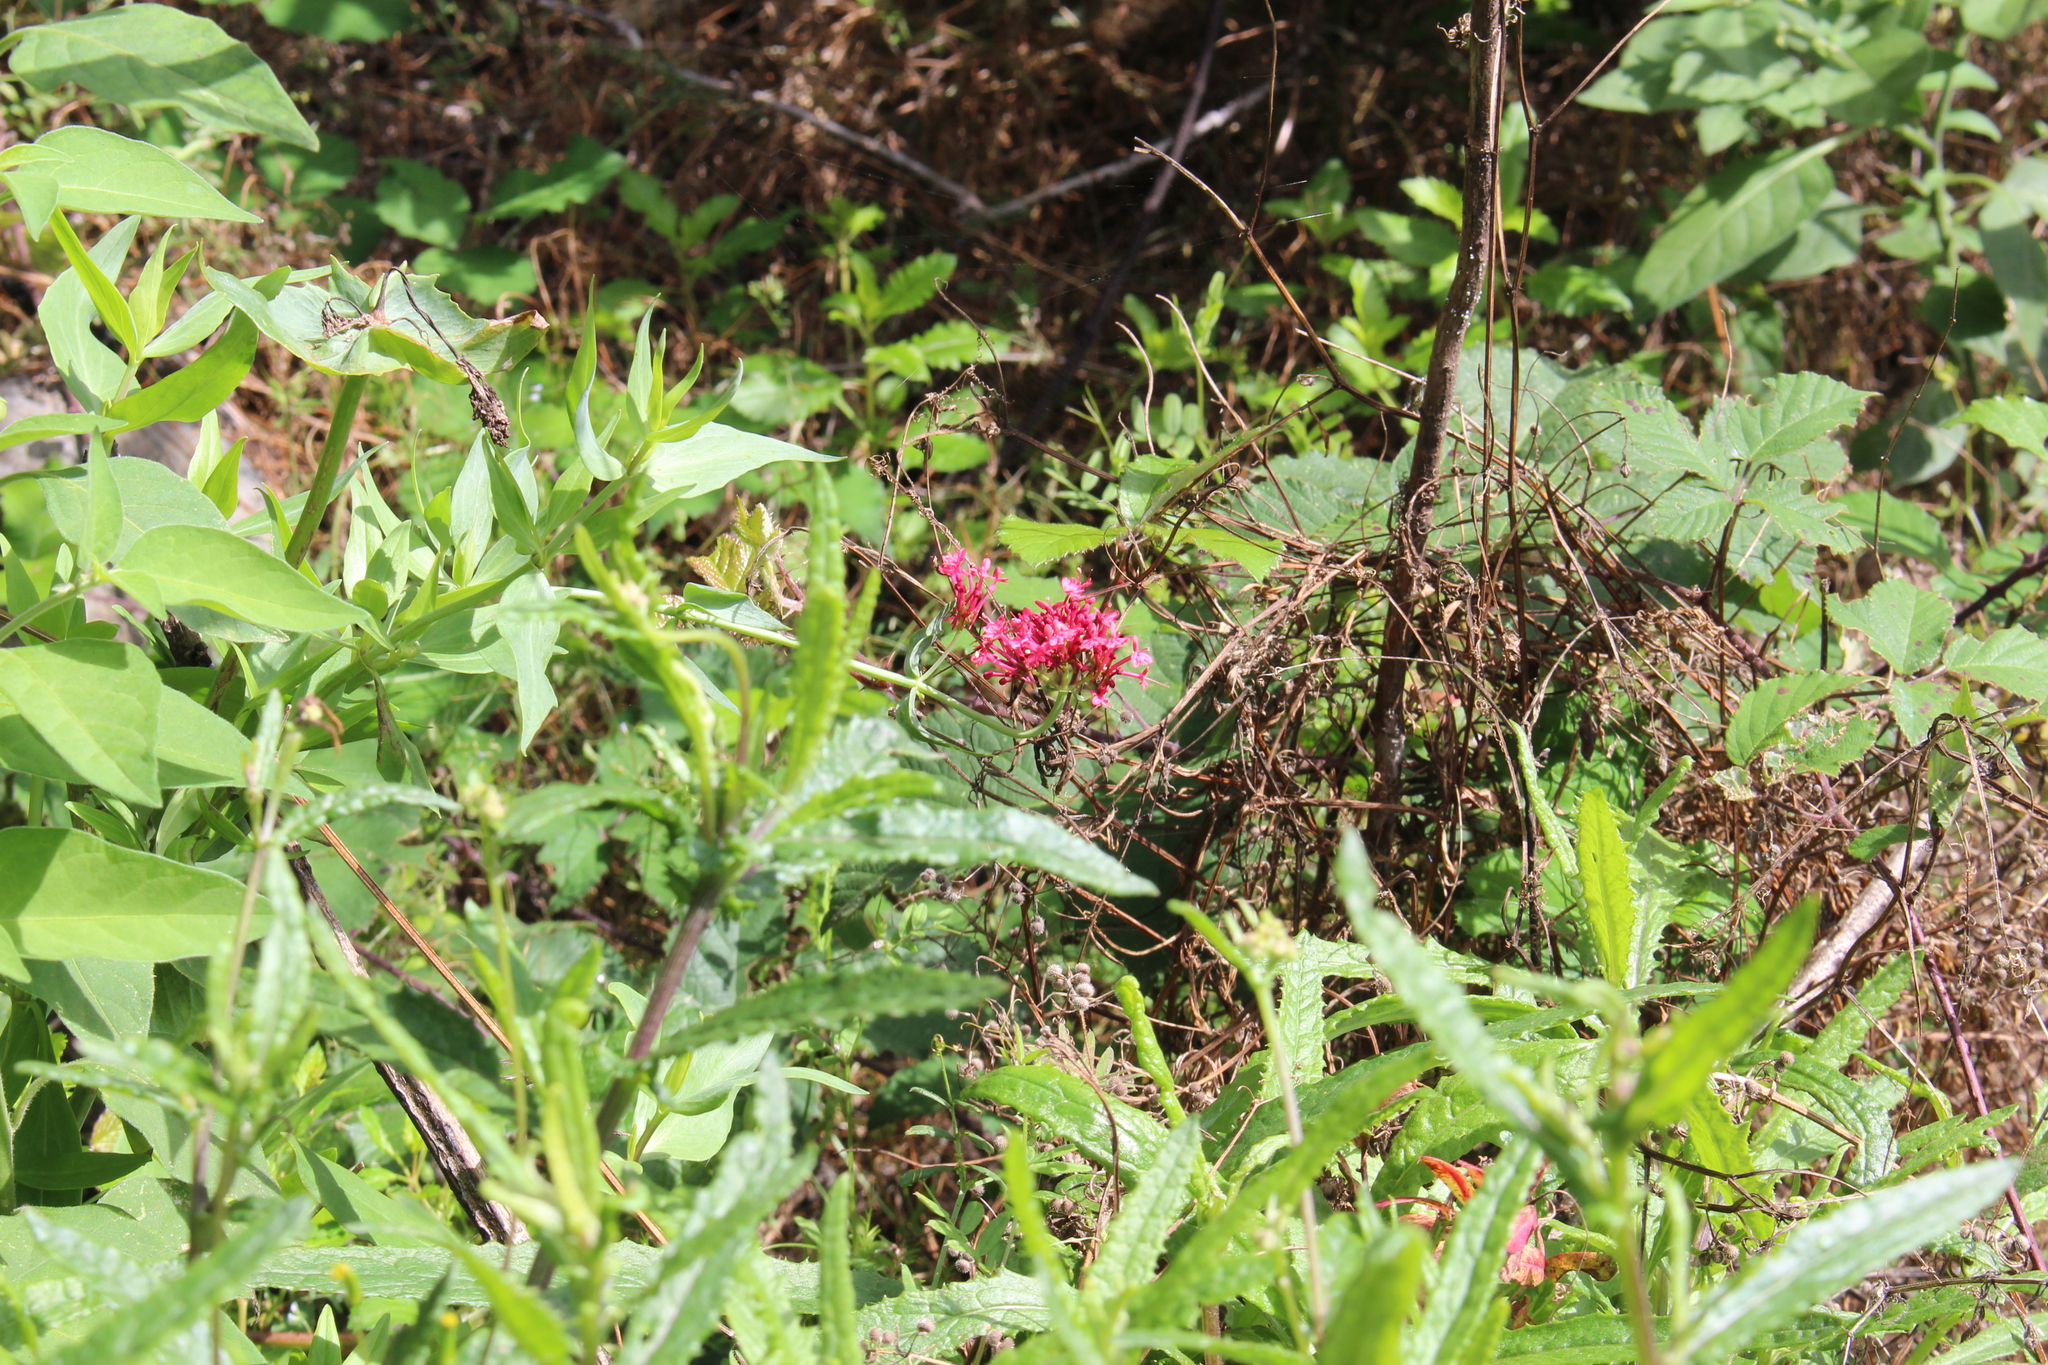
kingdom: Plantae
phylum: Tracheophyta
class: Magnoliopsida
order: Dipsacales
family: Caprifoliaceae
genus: Centranthus
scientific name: Centranthus ruber
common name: Red valerian
